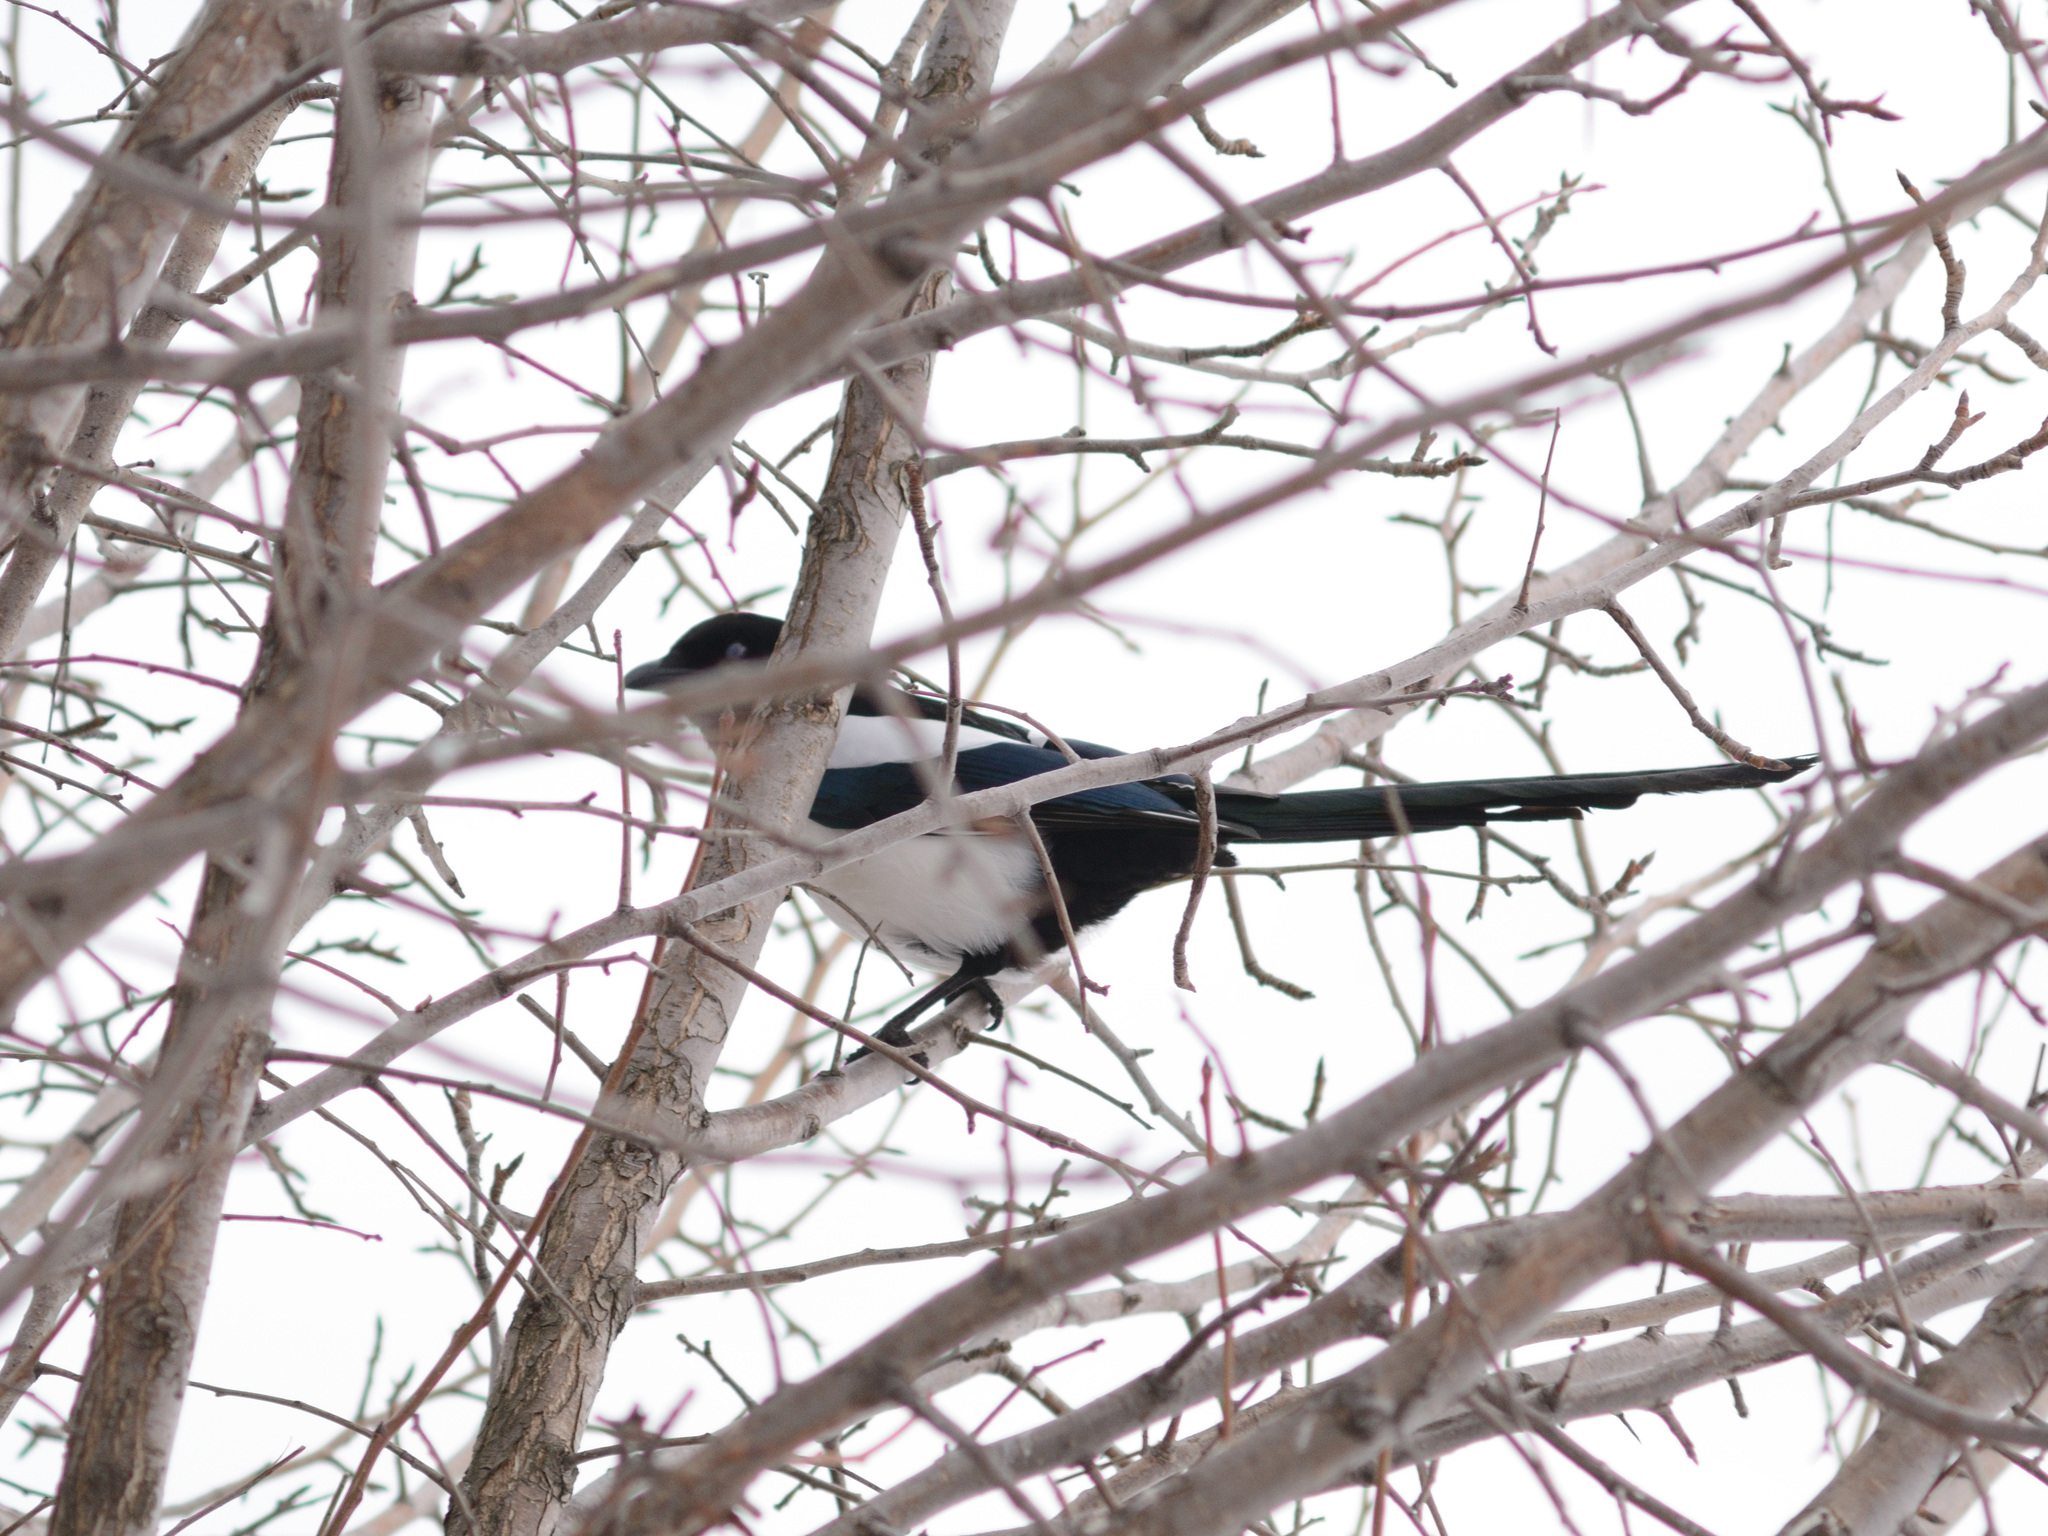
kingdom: Animalia
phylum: Chordata
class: Aves
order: Passeriformes
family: Corvidae
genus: Pica
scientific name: Pica pica
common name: Eurasian magpie
